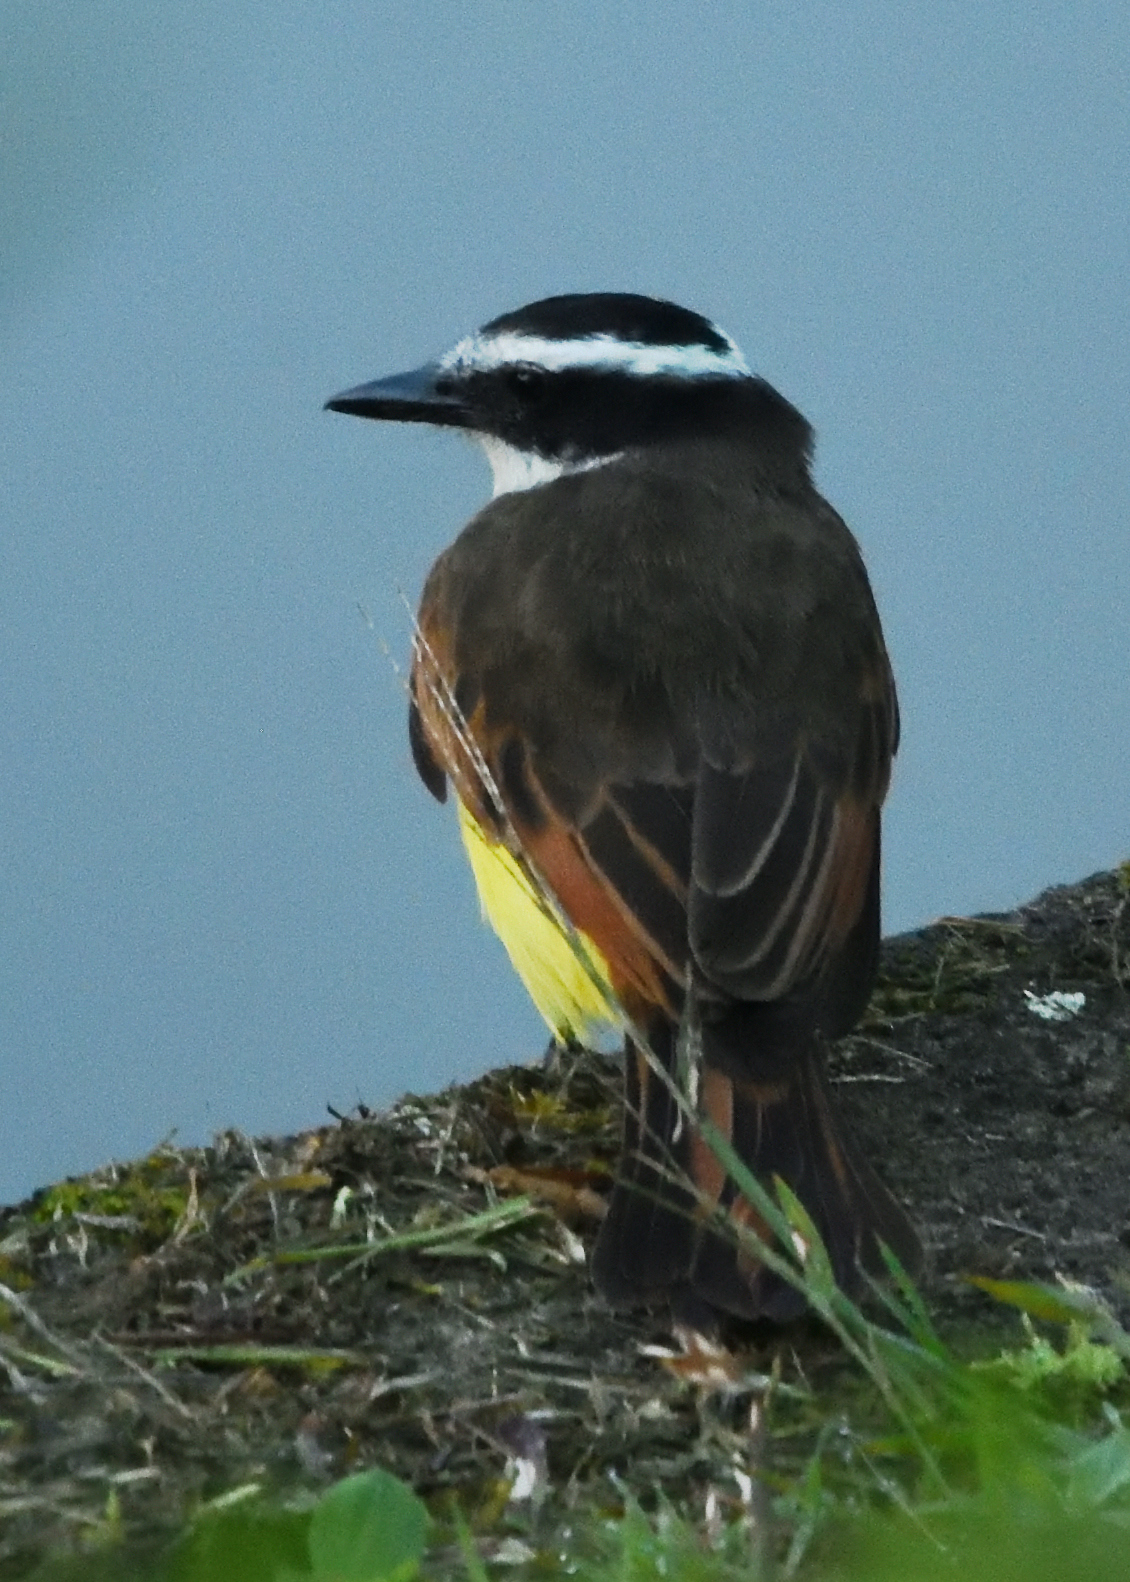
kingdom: Animalia
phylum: Chordata
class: Aves
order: Passeriformes
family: Tyrannidae
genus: Pitangus
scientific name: Pitangus sulphuratus
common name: Great kiskadee
